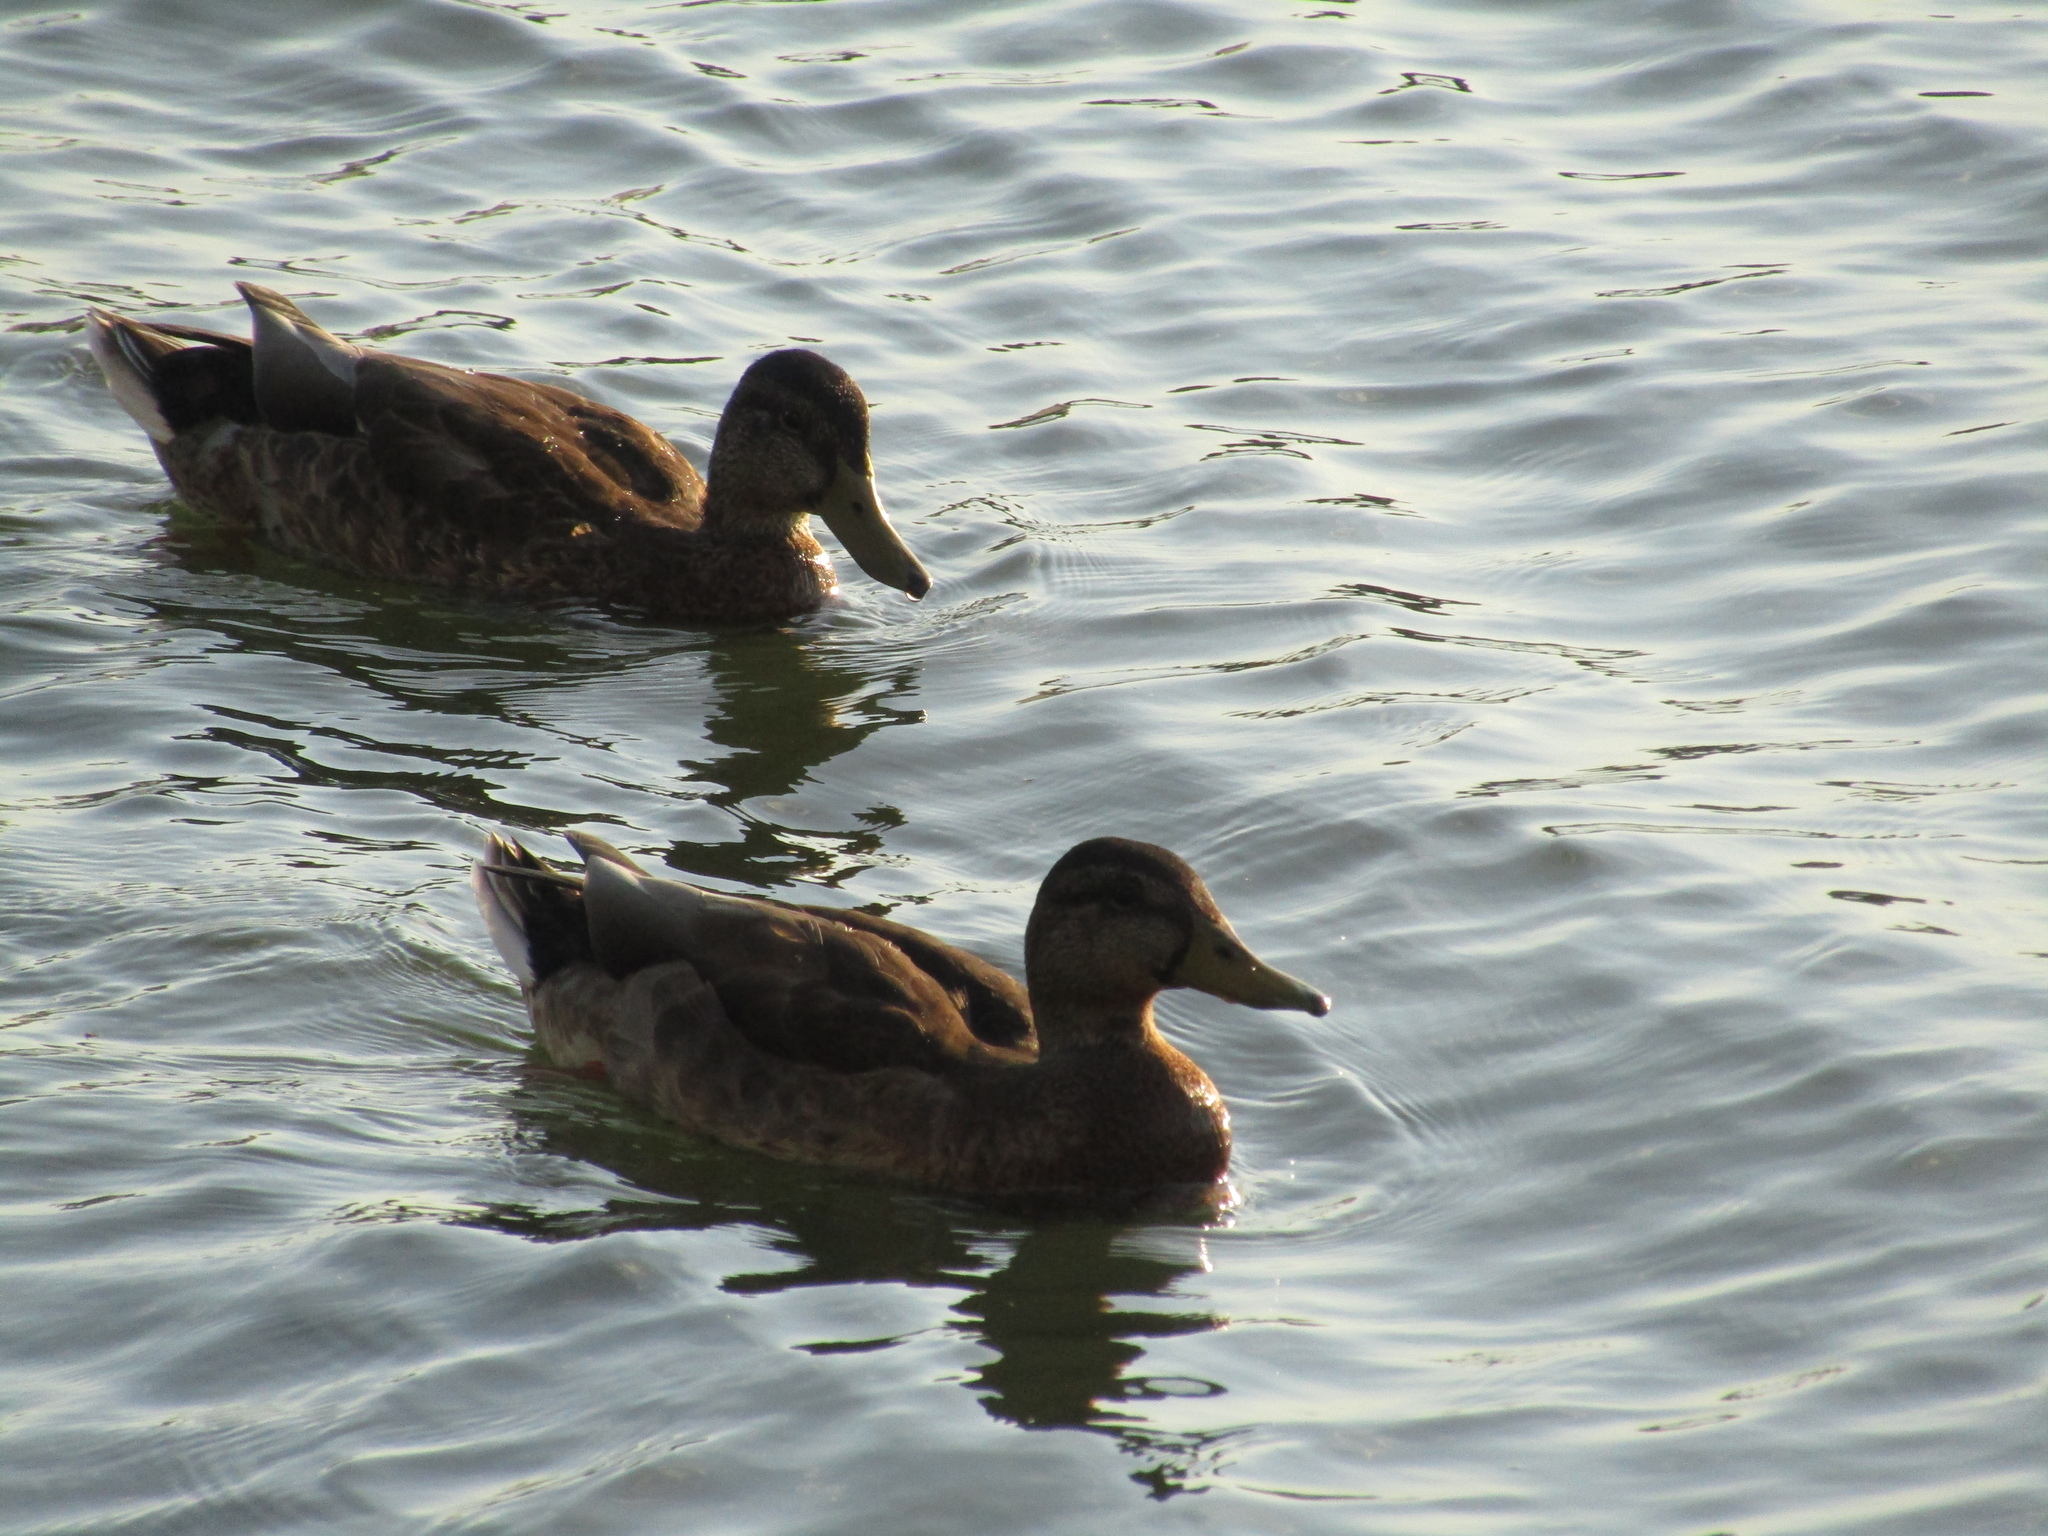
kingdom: Animalia
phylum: Chordata
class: Aves
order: Anseriformes
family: Anatidae
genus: Anas
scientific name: Anas platyrhynchos
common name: Mallard
